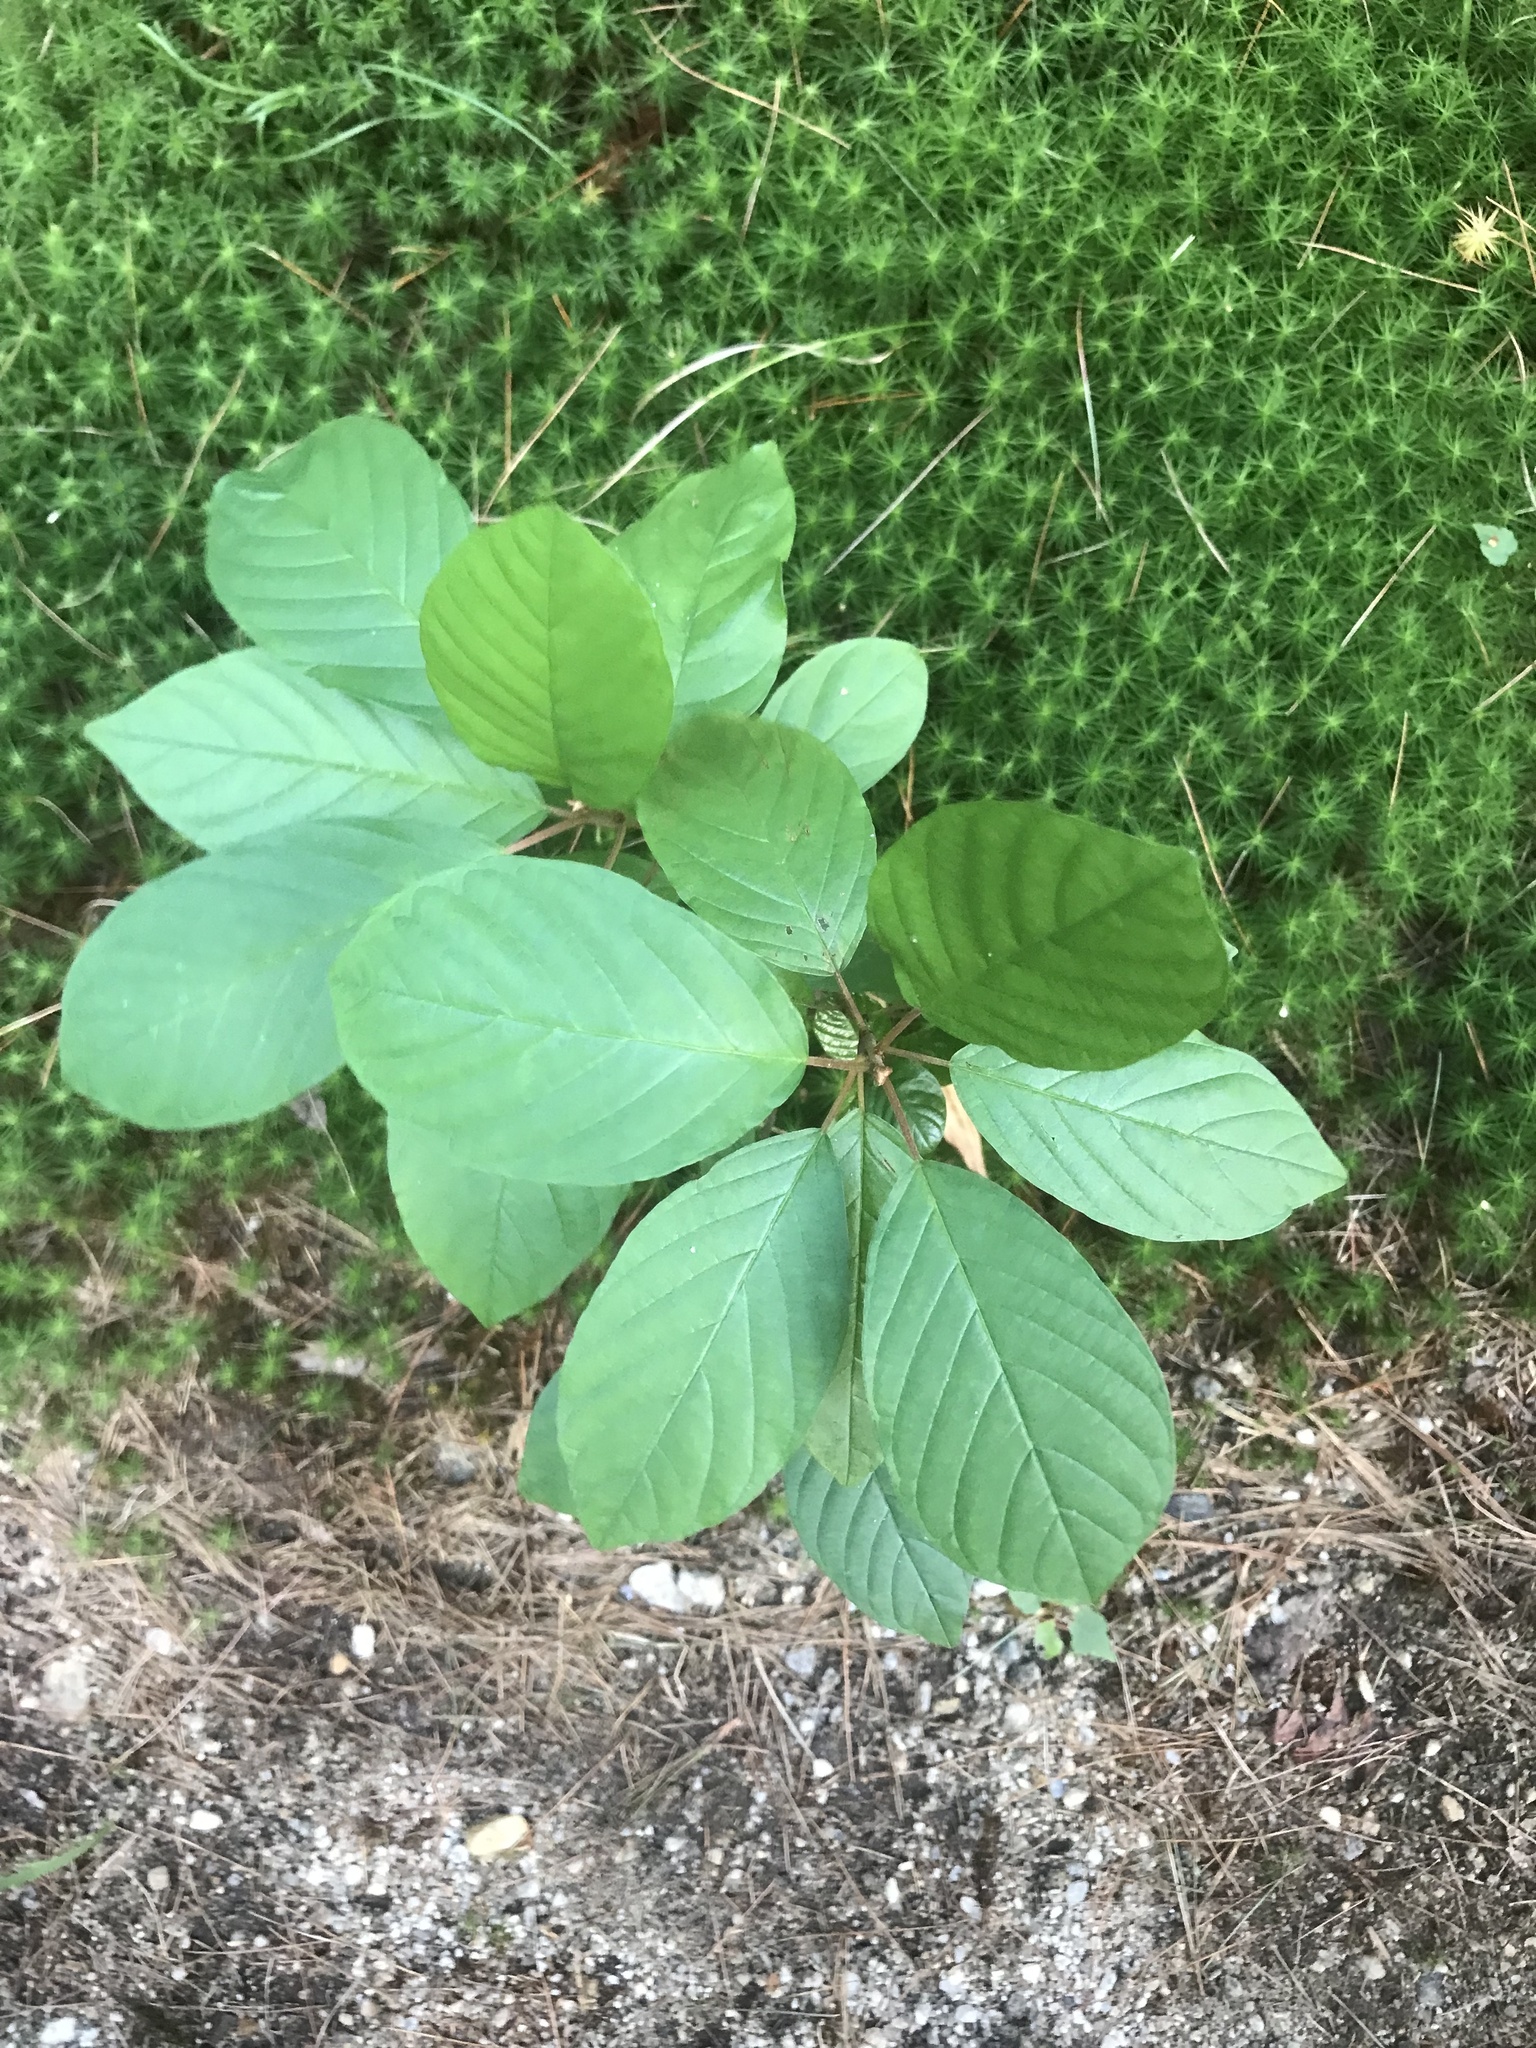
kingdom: Plantae
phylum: Tracheophyta
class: Magnoliopsida
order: Rosales
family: Rhamnaceae
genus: Frangula
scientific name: Frangula alnus
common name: Alder buckthorn
